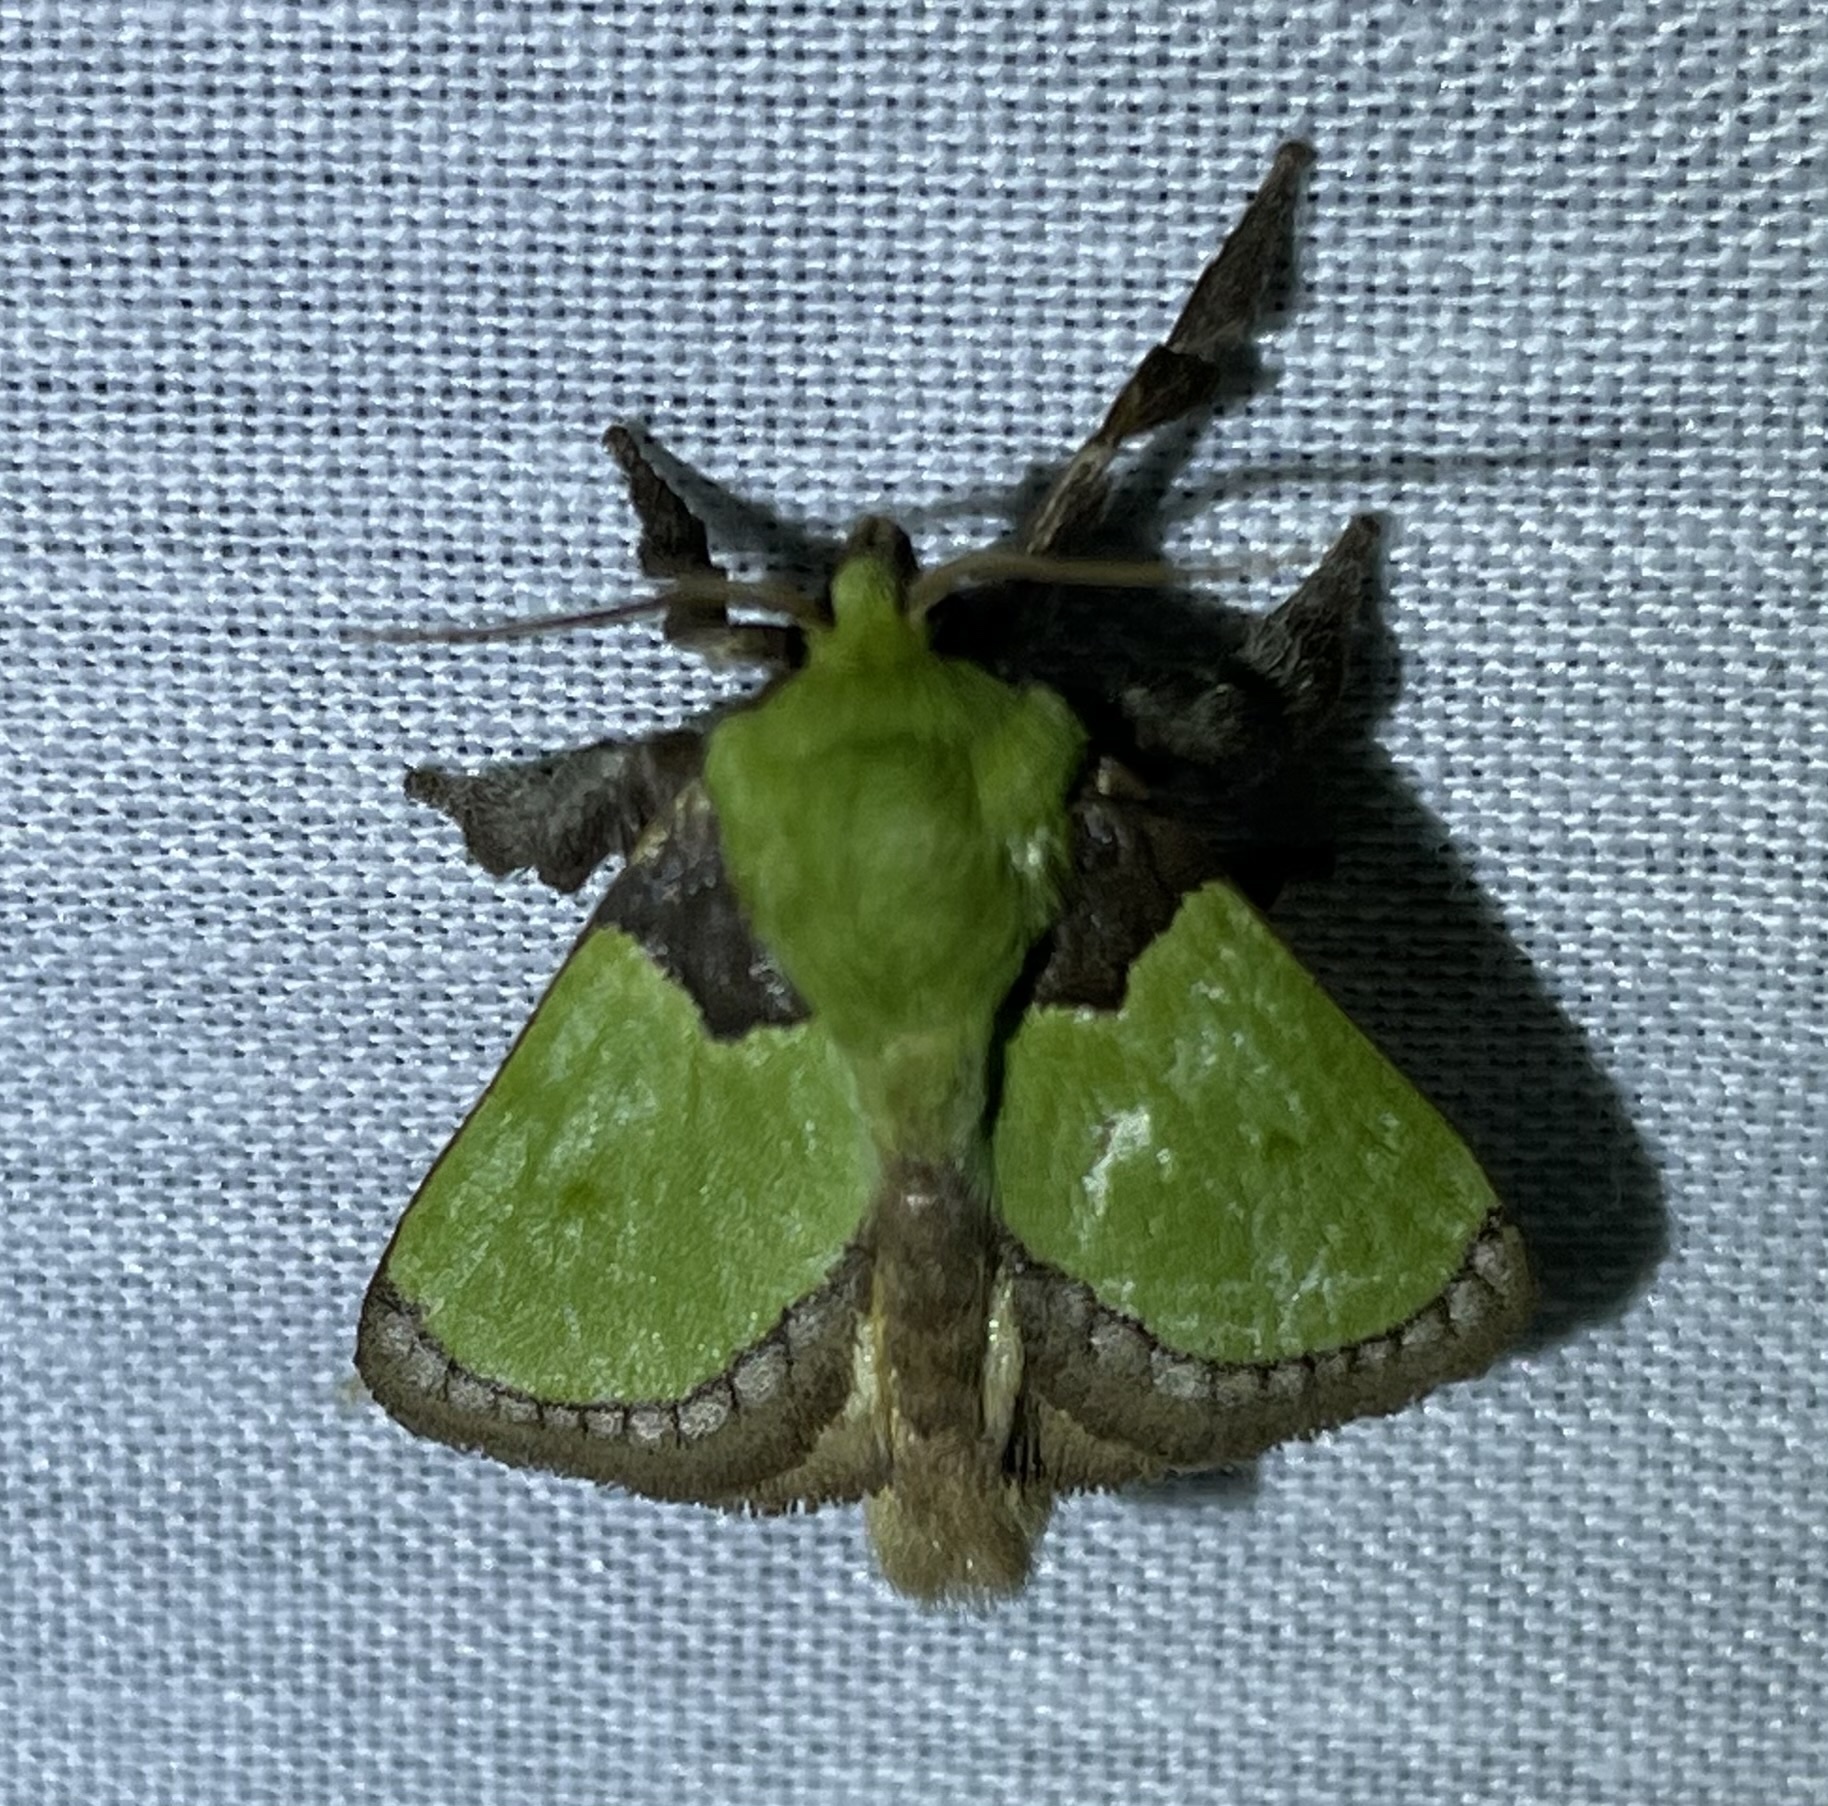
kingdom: Animalia
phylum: Arthropoda
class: Insecta
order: Lepidoptera
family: Limacodidae
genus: Parasa
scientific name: Parasa vivida
